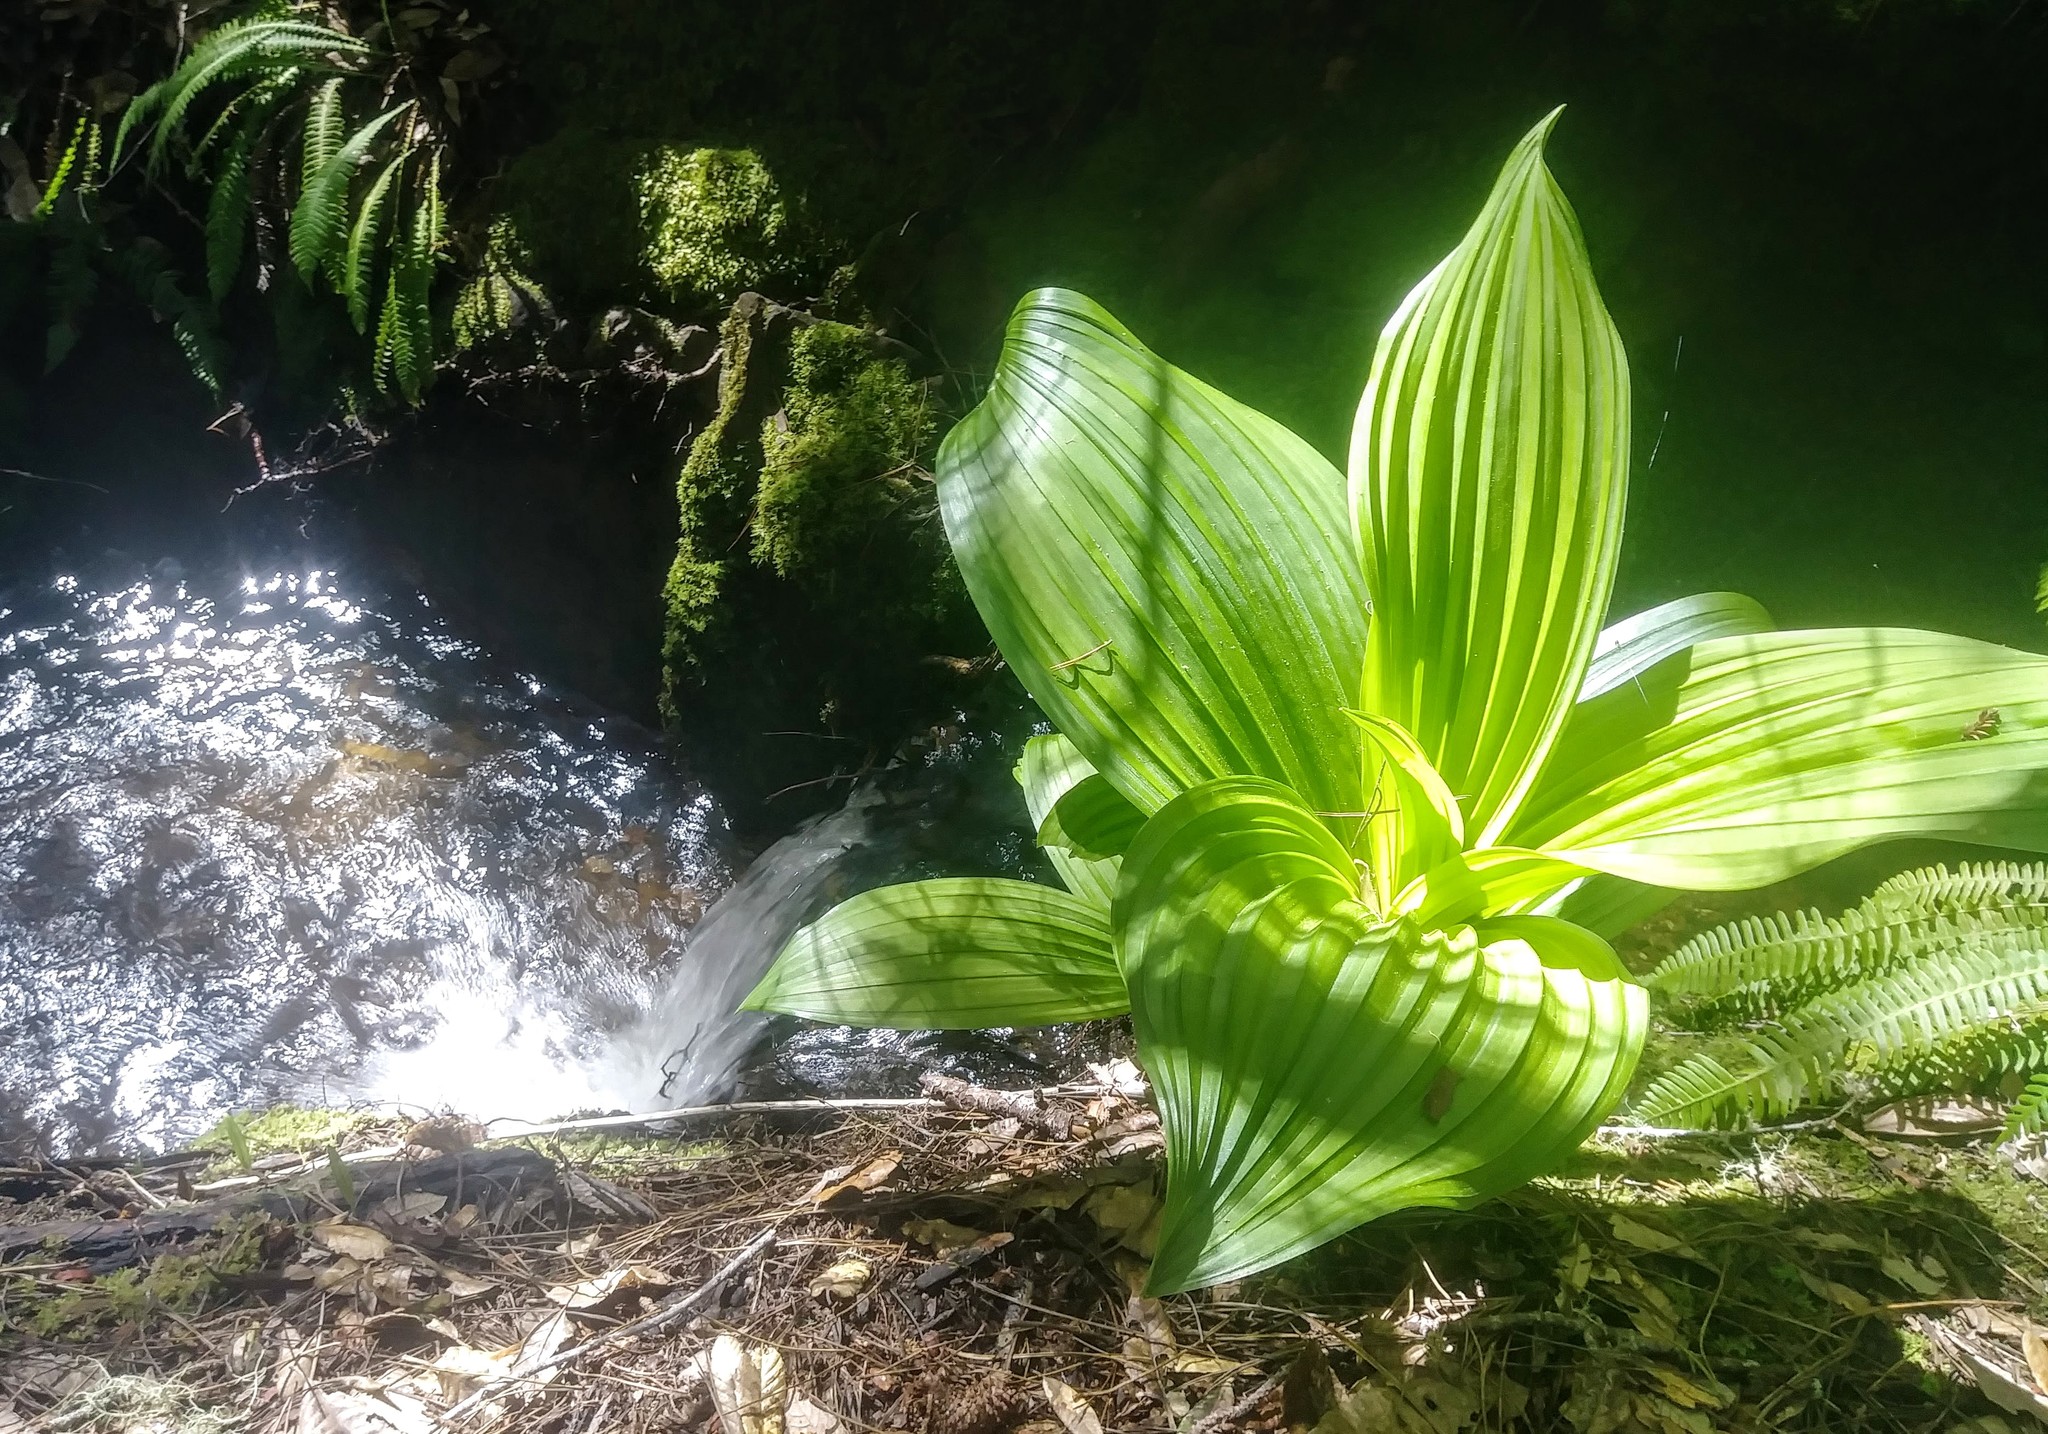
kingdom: Plantae
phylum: Tracheophyta
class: Liliopsida
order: Liliales
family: Melanthiaceae
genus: Veratrum
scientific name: Veratrum fimbriatum
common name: Fringe false hellobore
